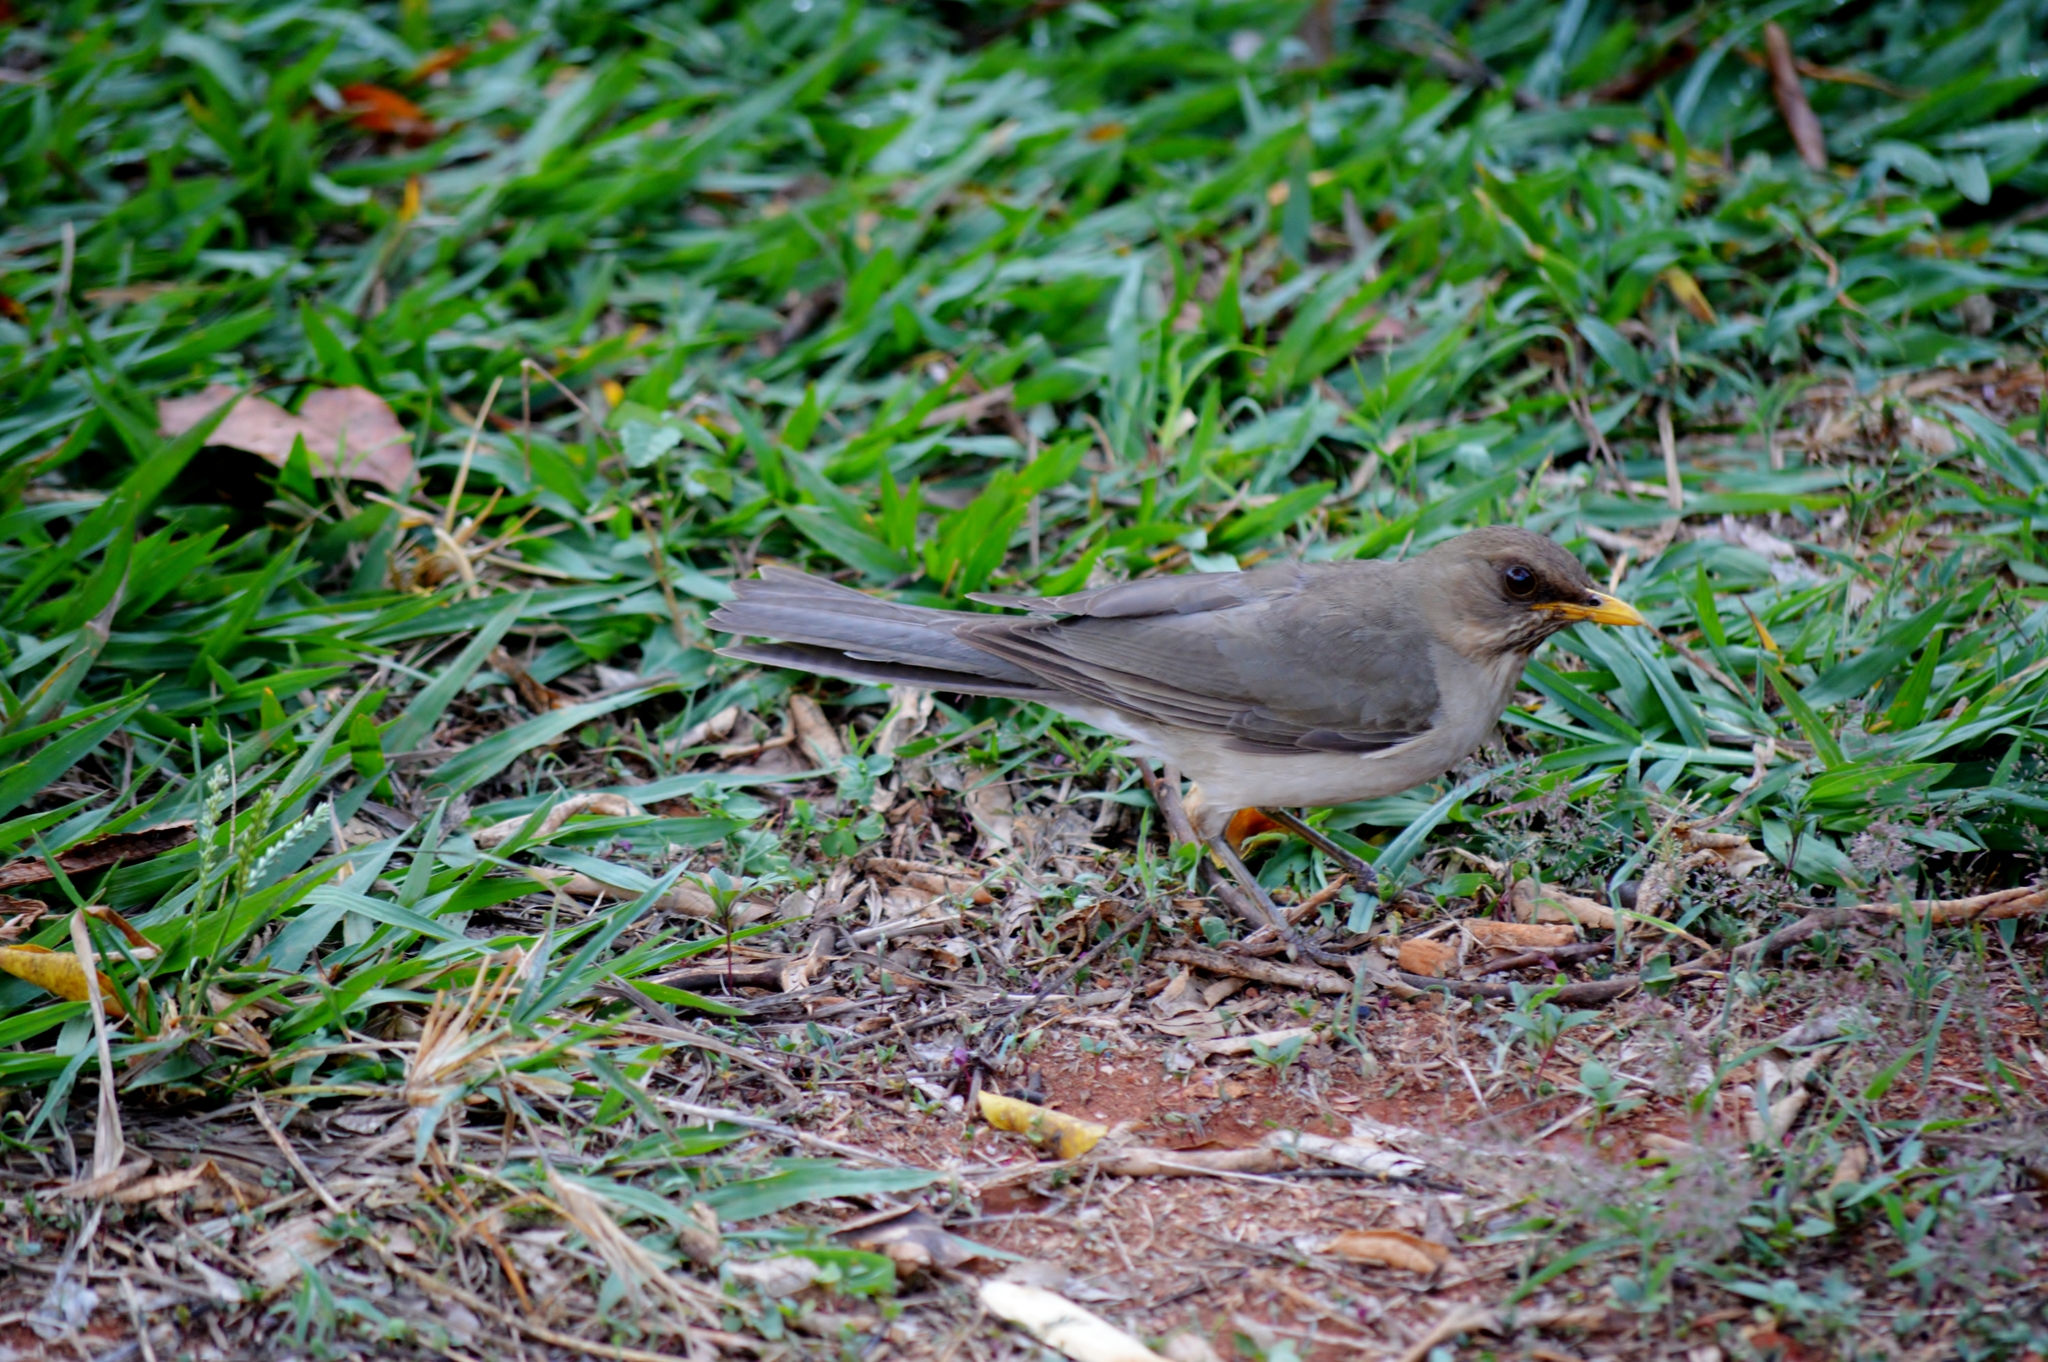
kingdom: Animalia
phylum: Chordata
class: Aves
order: Passeriformes
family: Turdidae
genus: Turdus
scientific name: Turdus amaurochalinus
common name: Creamy-bellied thrush
